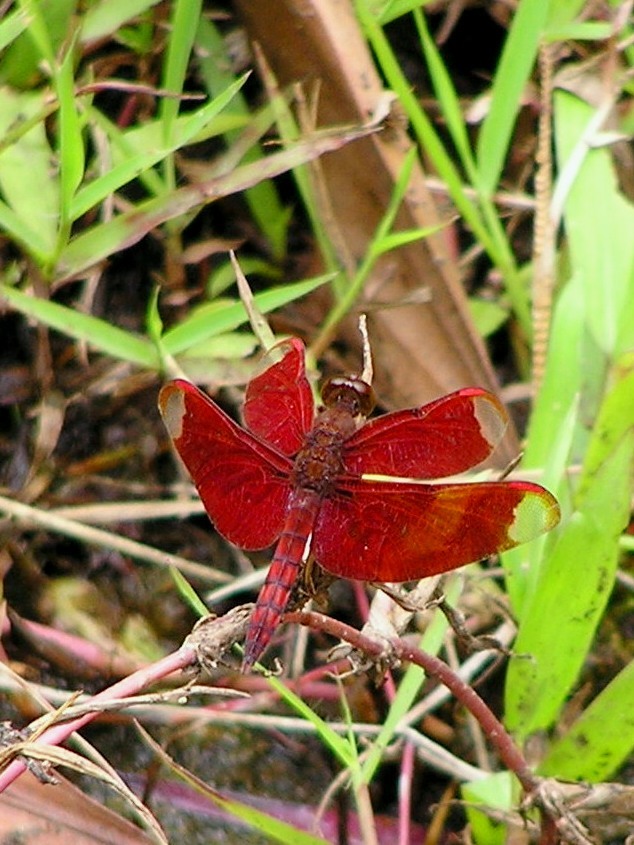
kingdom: Animalia
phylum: Arthropoda
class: Insecta
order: Odonata
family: Libellulidae
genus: Neurothemis
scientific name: Neurothemis fulvia
